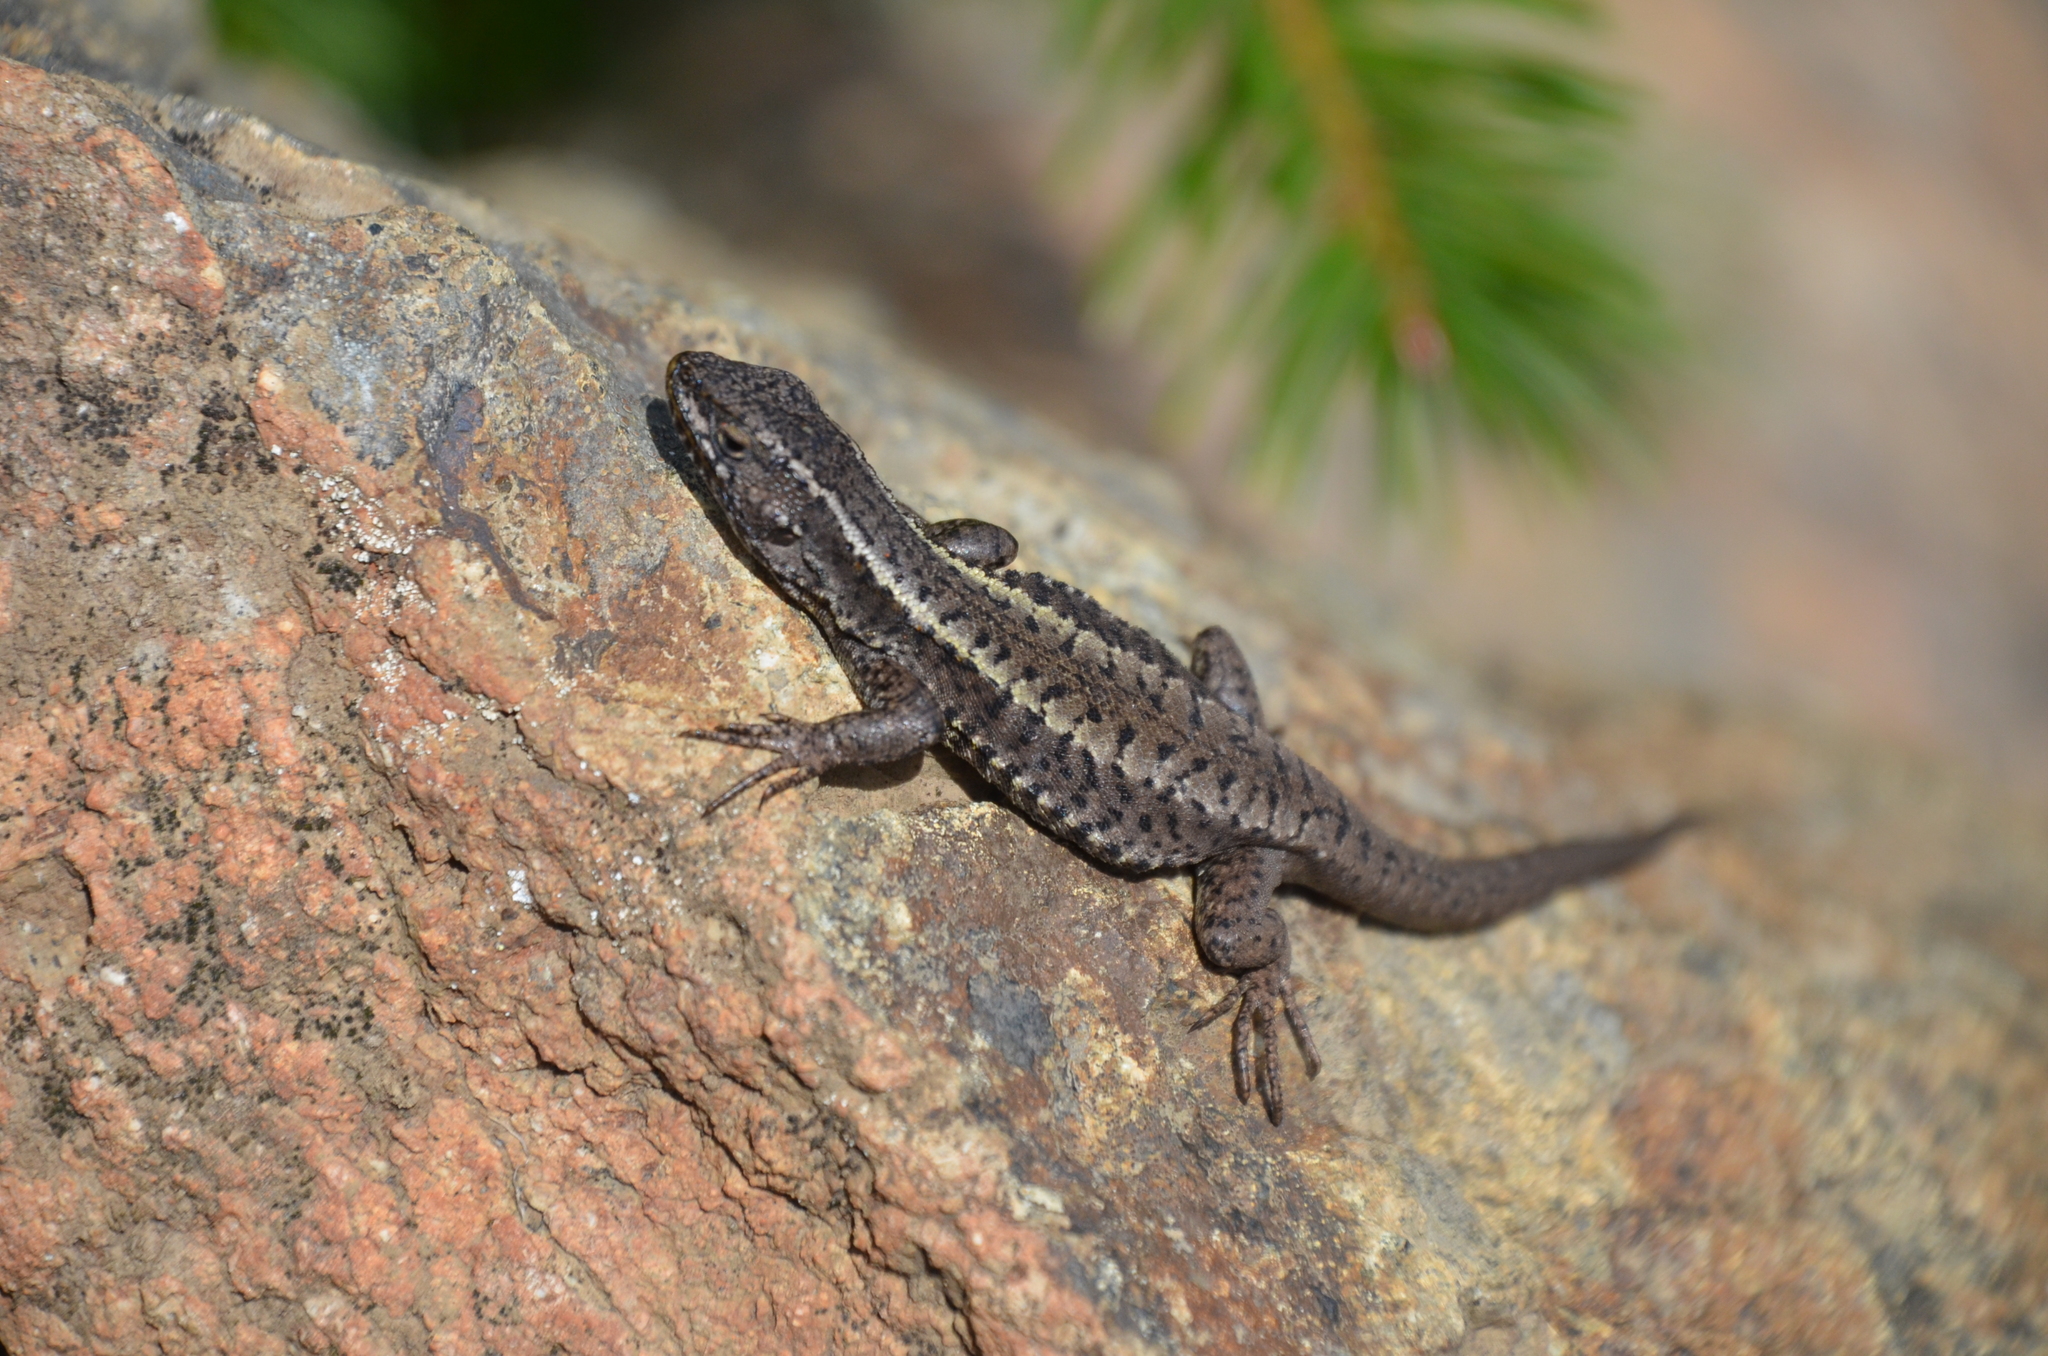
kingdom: Animalia
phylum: Chordata
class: Squamata
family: Liolaemidae
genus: Liolaemus
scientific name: Liolaemus pictus
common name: Painted tree iguana
